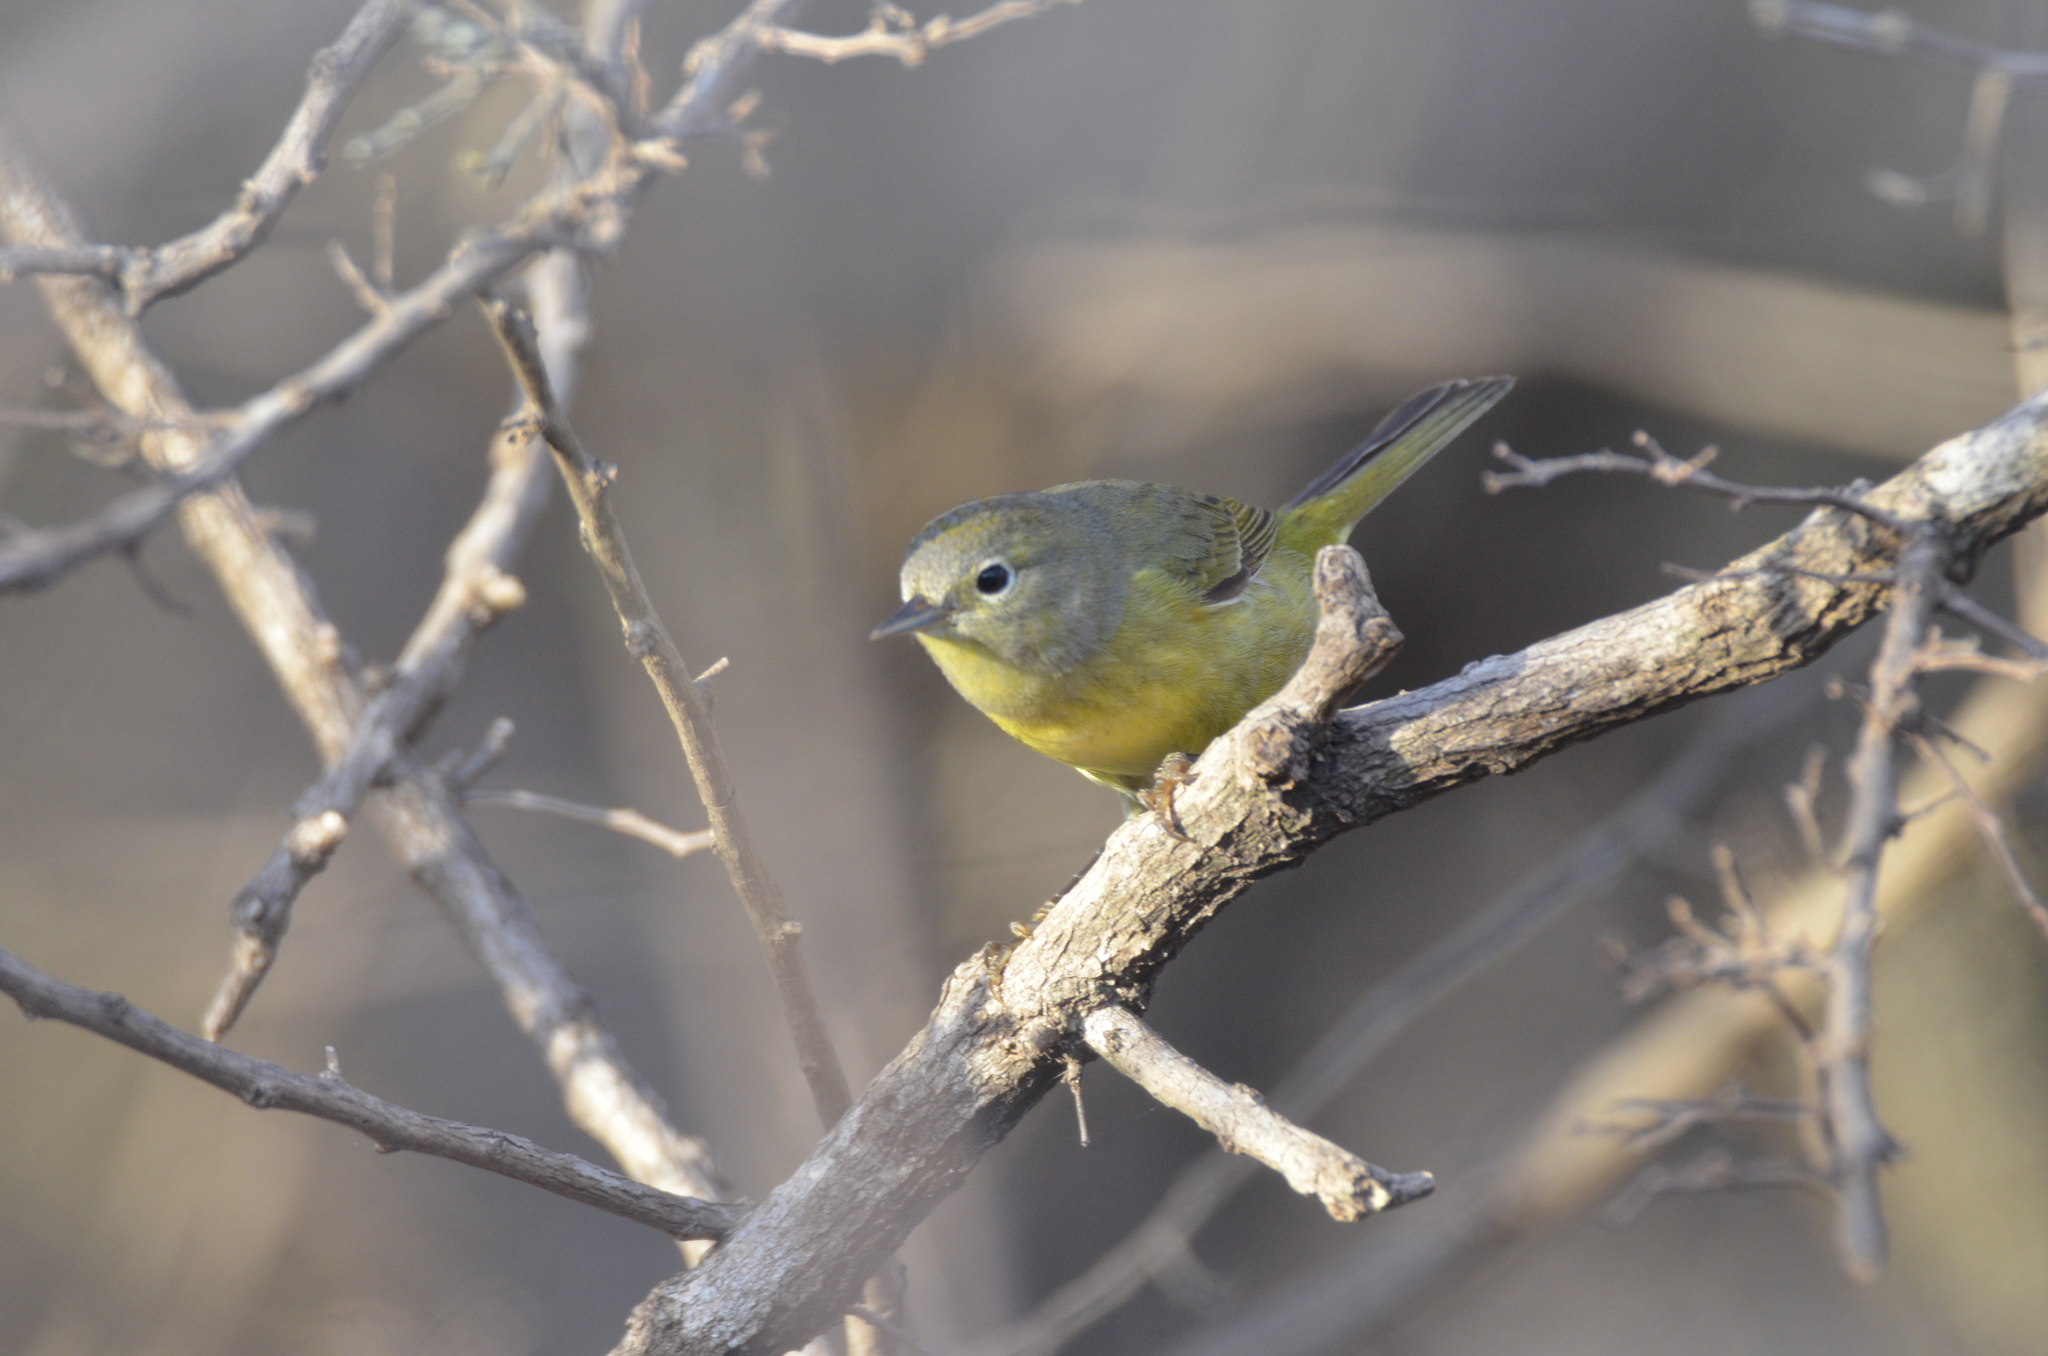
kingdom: Animalia
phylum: Chordata
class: Aves
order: Passeriformes
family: Parulidae
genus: Leiothlypis
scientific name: Leiothlypis celata
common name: Orange-crowned warbler
